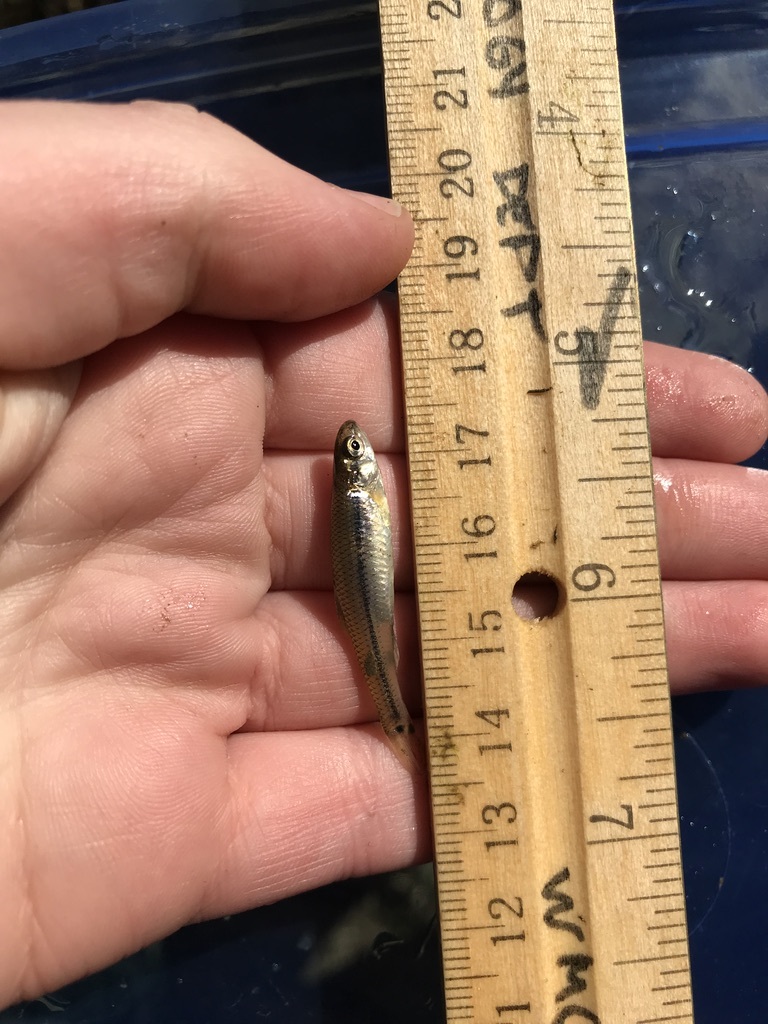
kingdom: Animalia
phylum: Chordata
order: Cypriniformes
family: Cyprinidae
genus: Pimephales
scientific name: Pimephales notatus
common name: Bluntnose minnow
